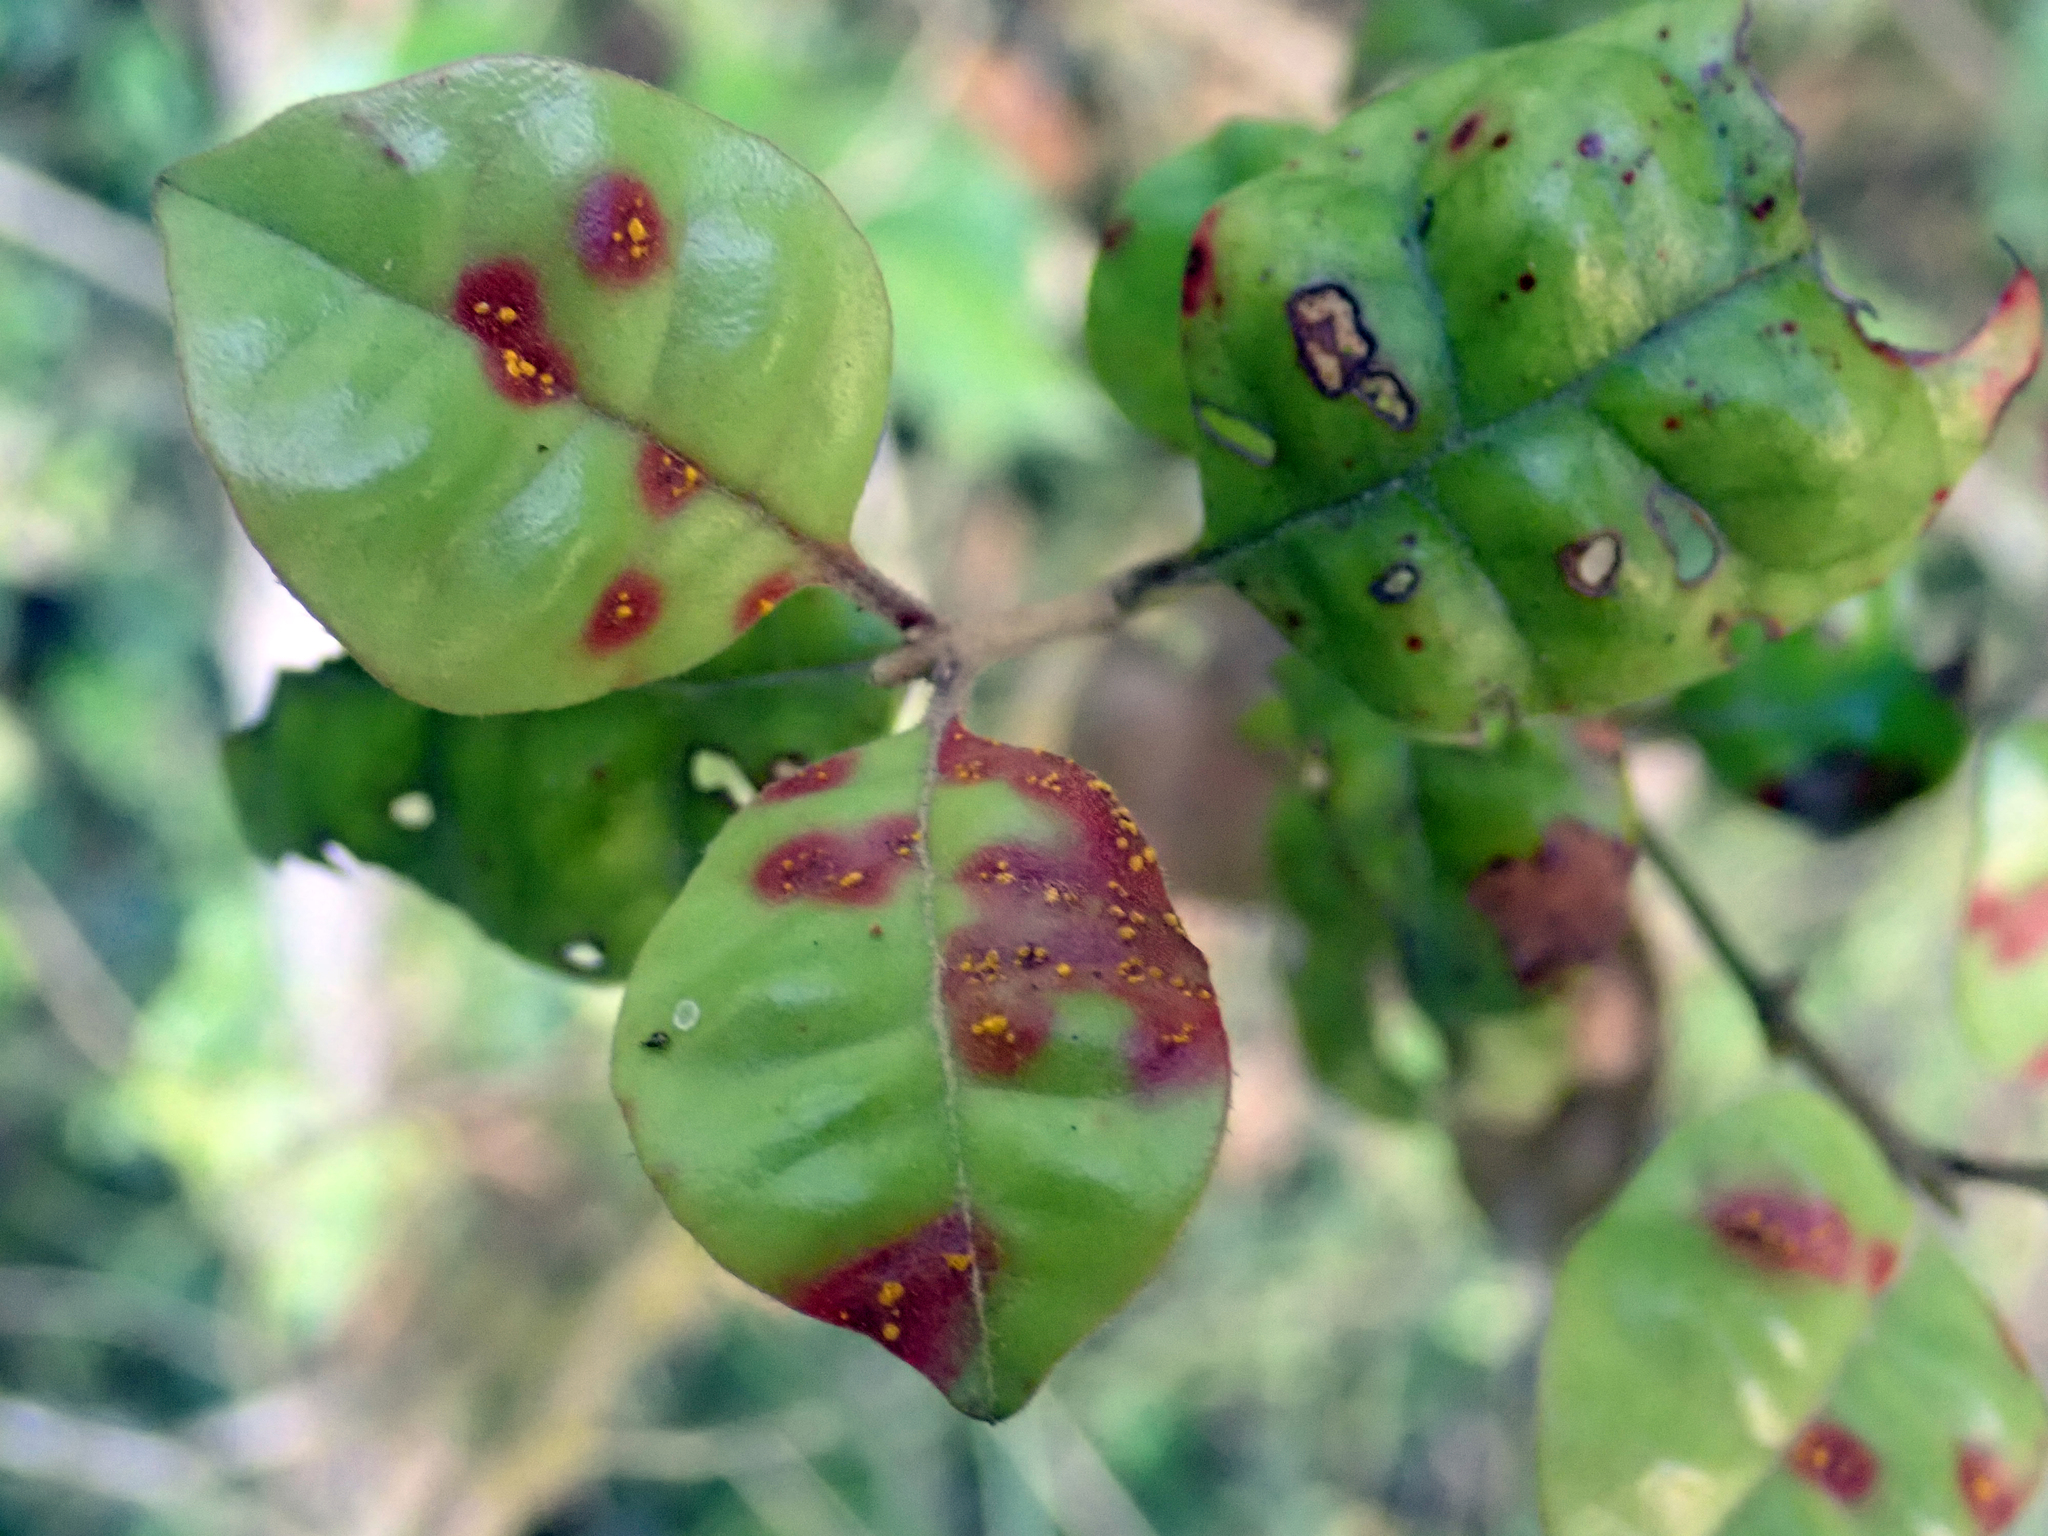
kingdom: Fungi
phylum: Basidiomycota
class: Pucciniomycetes
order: Pucciniales
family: Sphaerophragmiaceae
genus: Austropuccinia
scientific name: Austropuccinia psidii
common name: Myrtle rust
